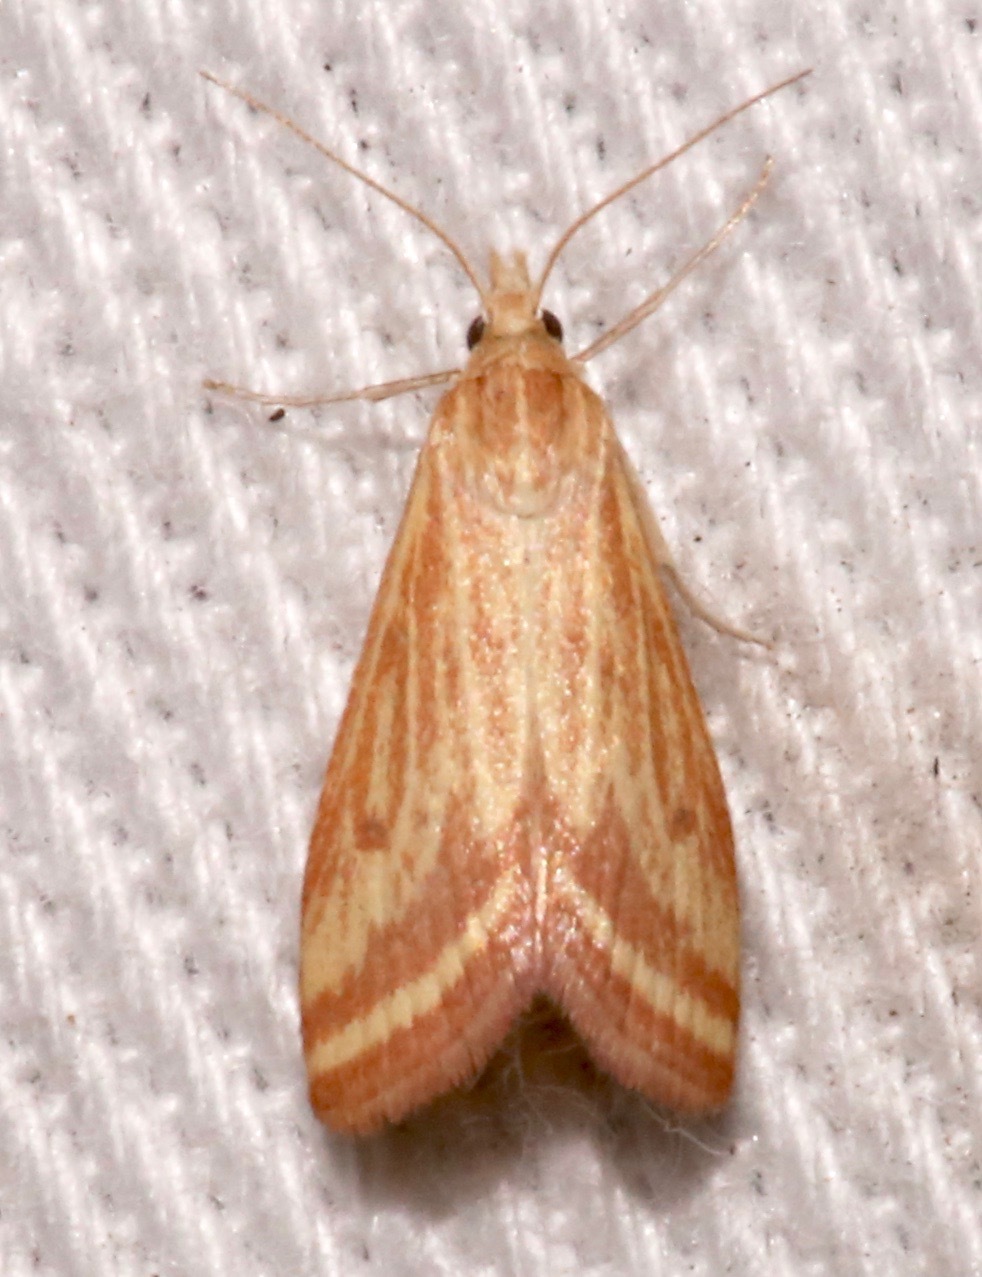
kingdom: Animalia
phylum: Arthropoda
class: Insecta
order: Lepidoptera
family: Crambidae
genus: Microtheoris
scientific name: Microtheoris ophionalis
